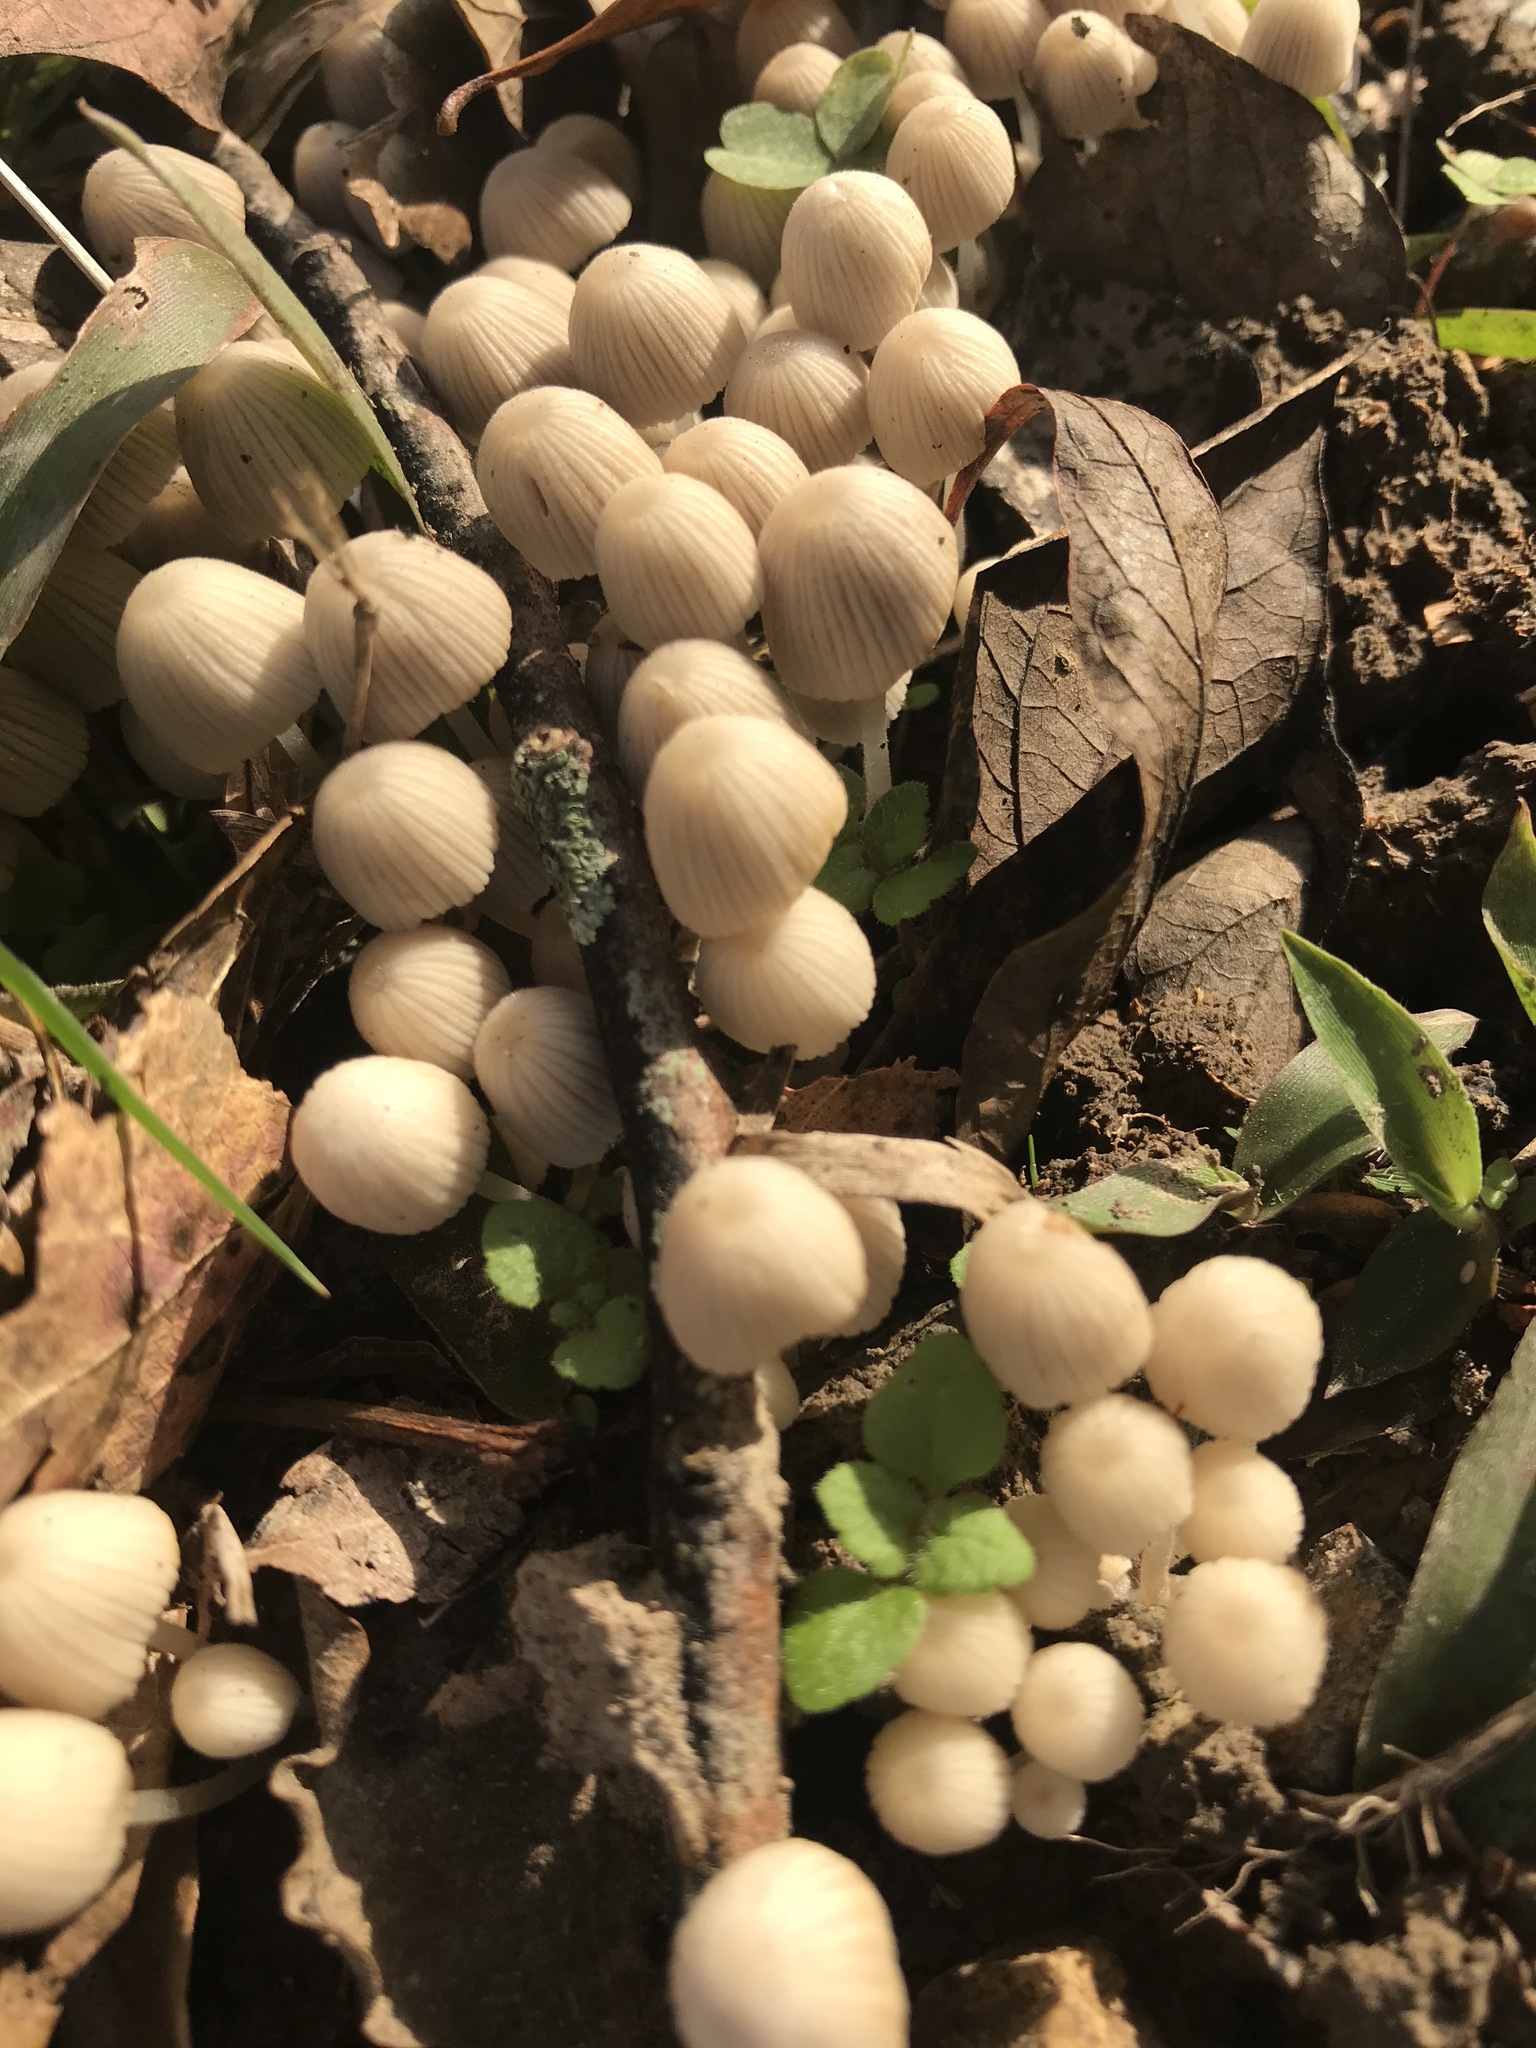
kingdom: Fungi
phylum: Basidiomycota
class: Agaricomycetes
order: Agaricales
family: Psathyrellaceae
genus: Coprinellus
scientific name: Coprinellus disseminatus
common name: Fairies' bonnets
